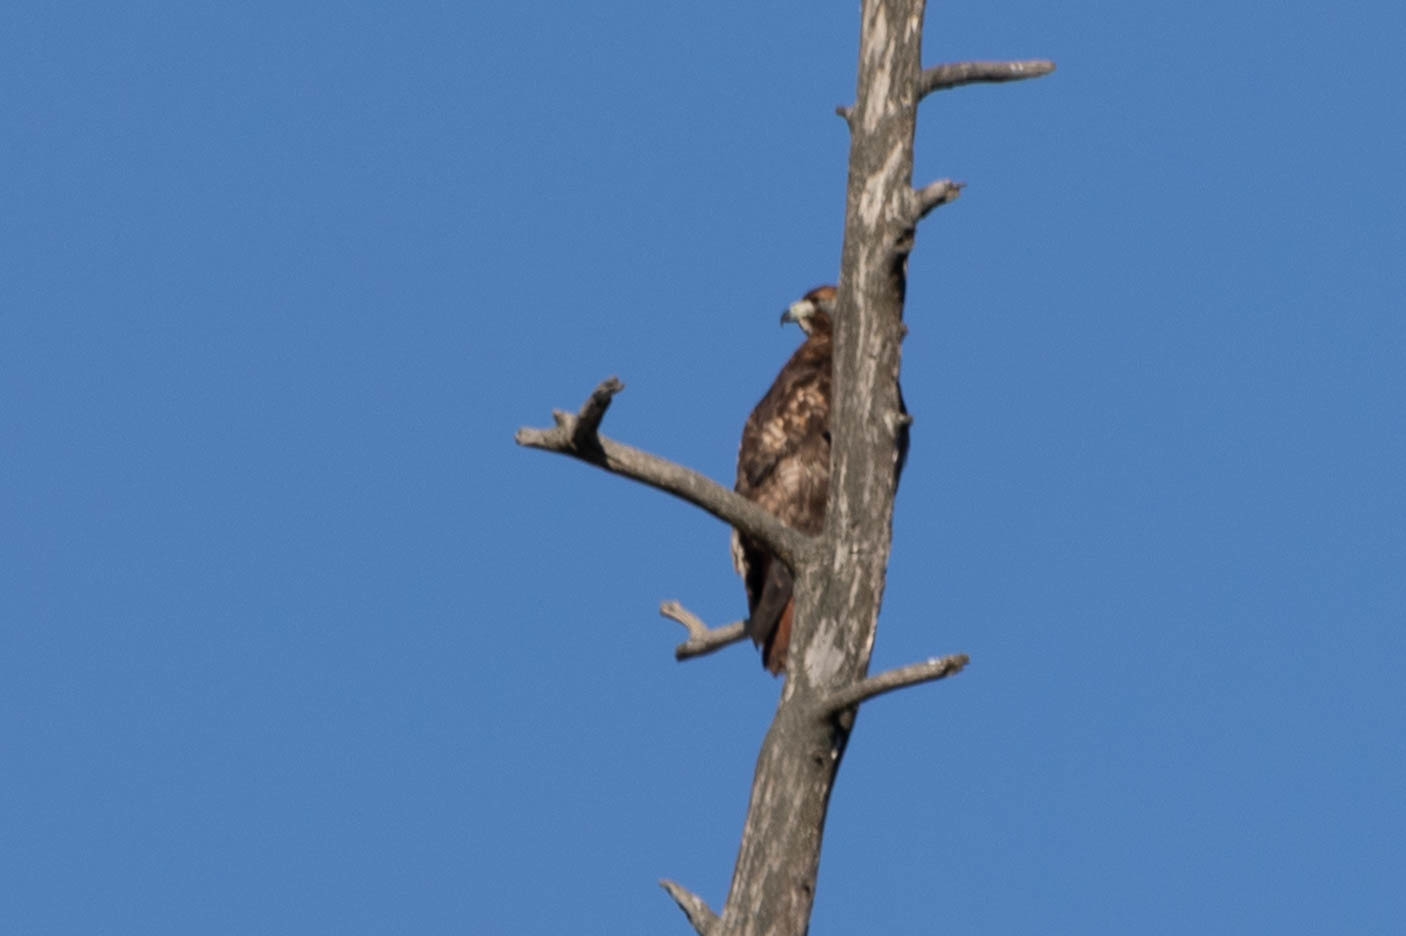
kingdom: Animalia
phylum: Chordata
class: Aves
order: Accipitriformes
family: Accipitridae
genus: Buteo
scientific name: Buteo jamaicensis
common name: Red-tailed hawk
